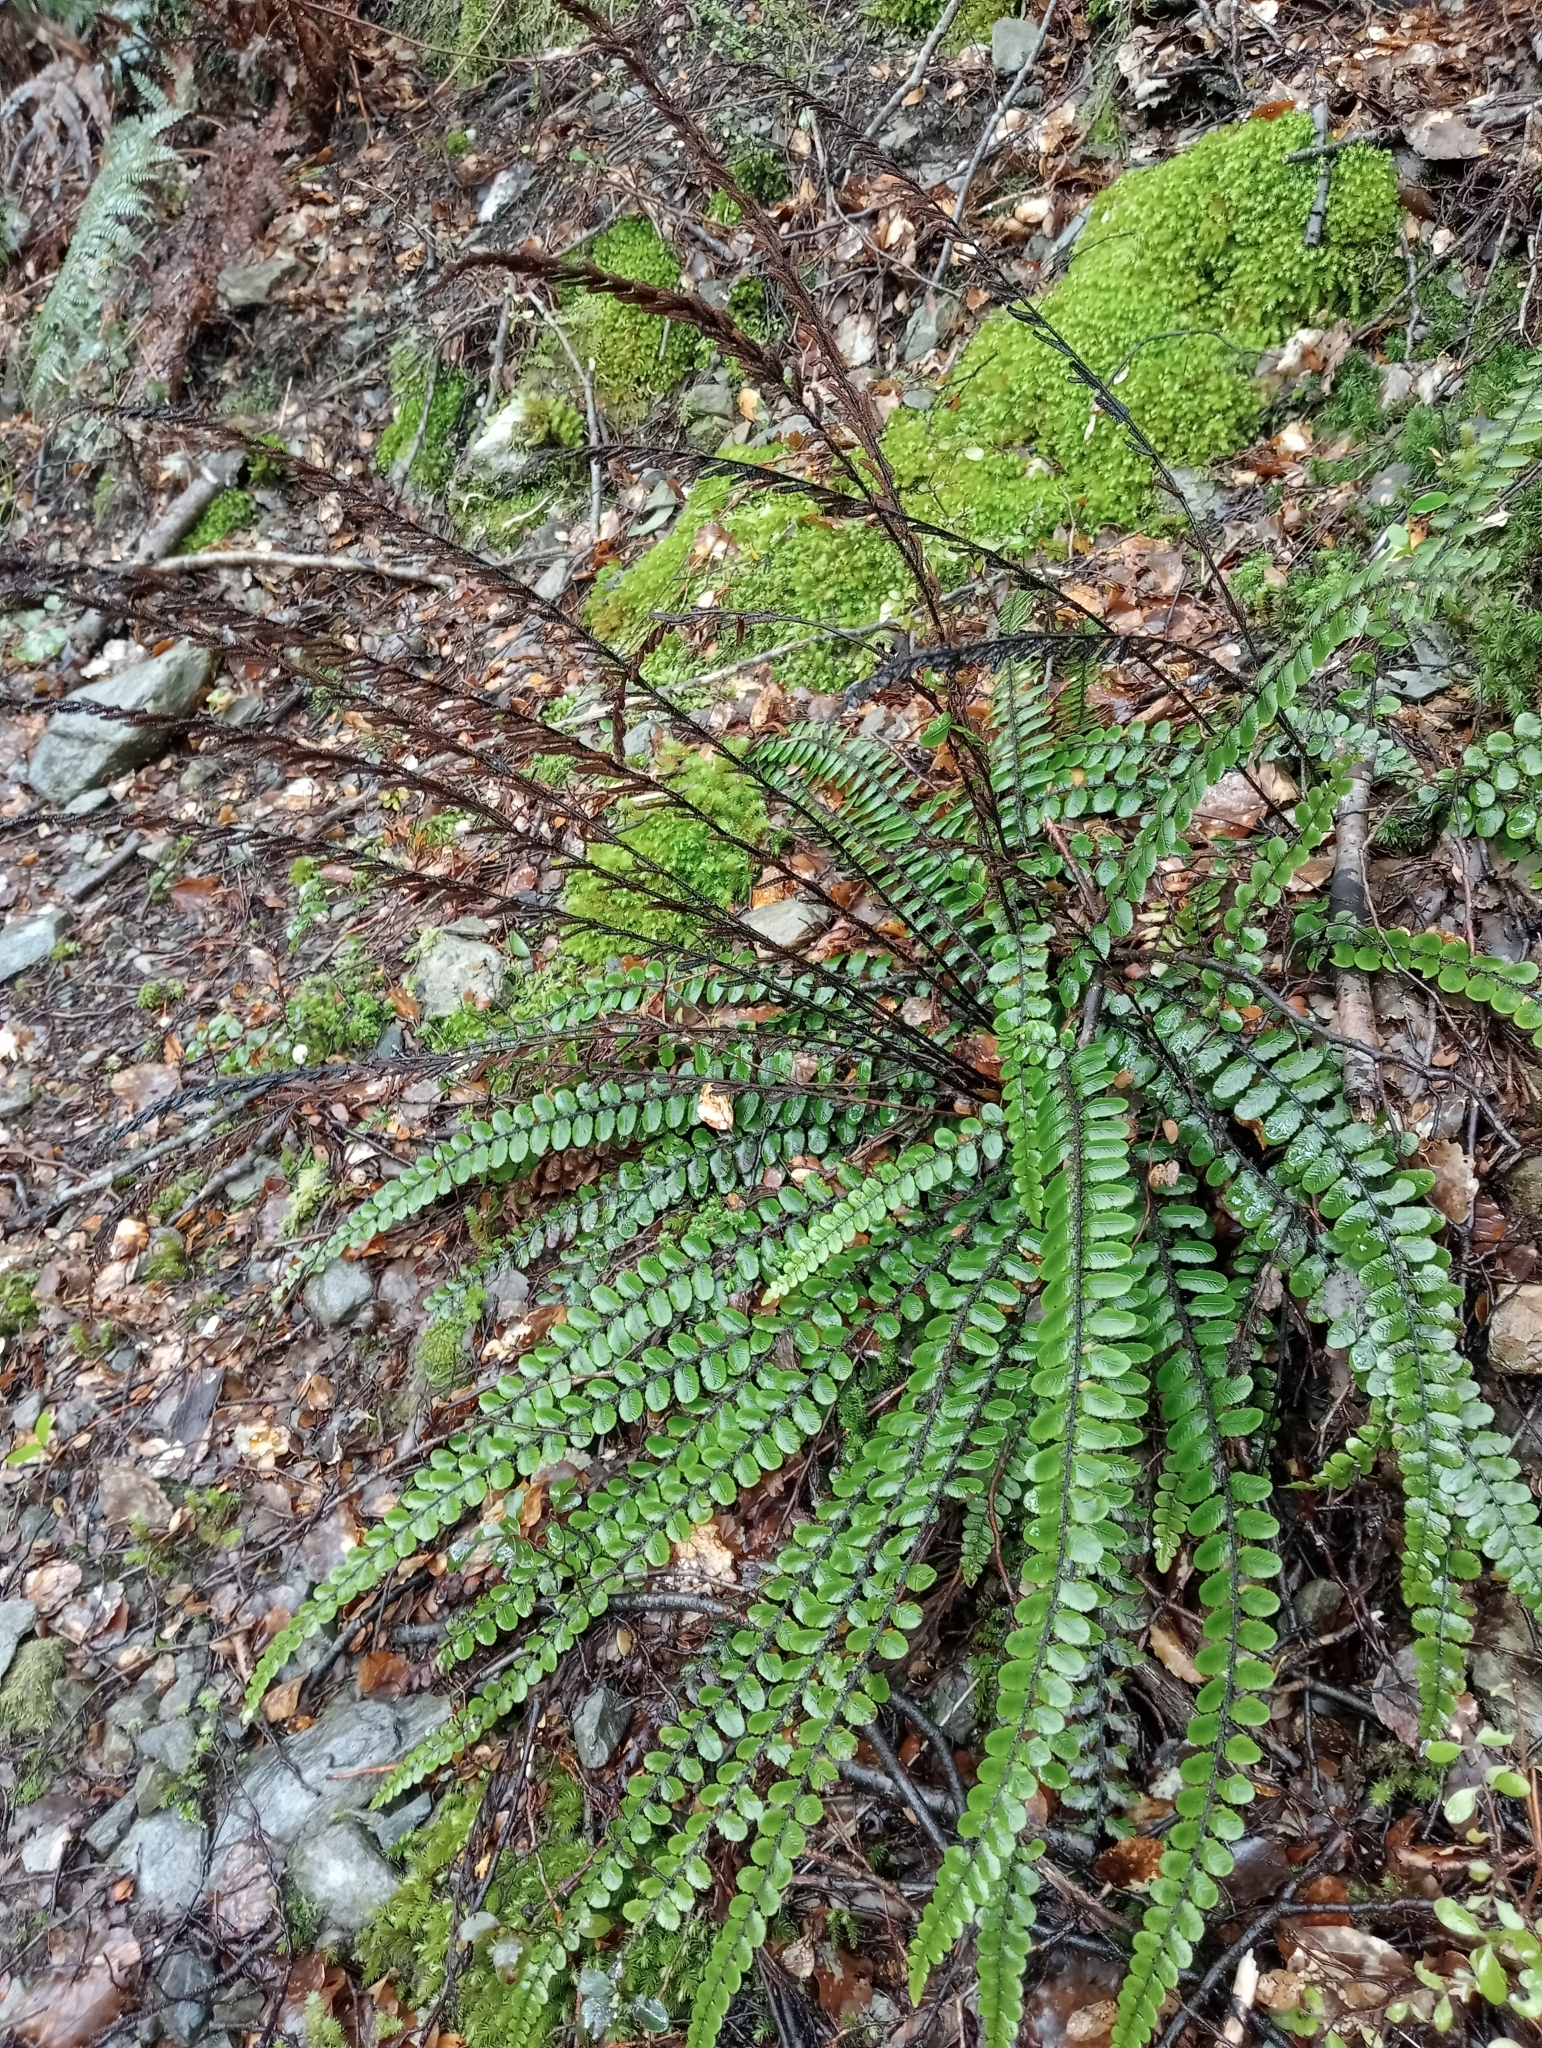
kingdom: Plantae
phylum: Tracheophyta
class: Polypodiopsida
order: Polypodiales
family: Blechnaceae
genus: Cranfillia
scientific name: Cranfillia fluviatilis
